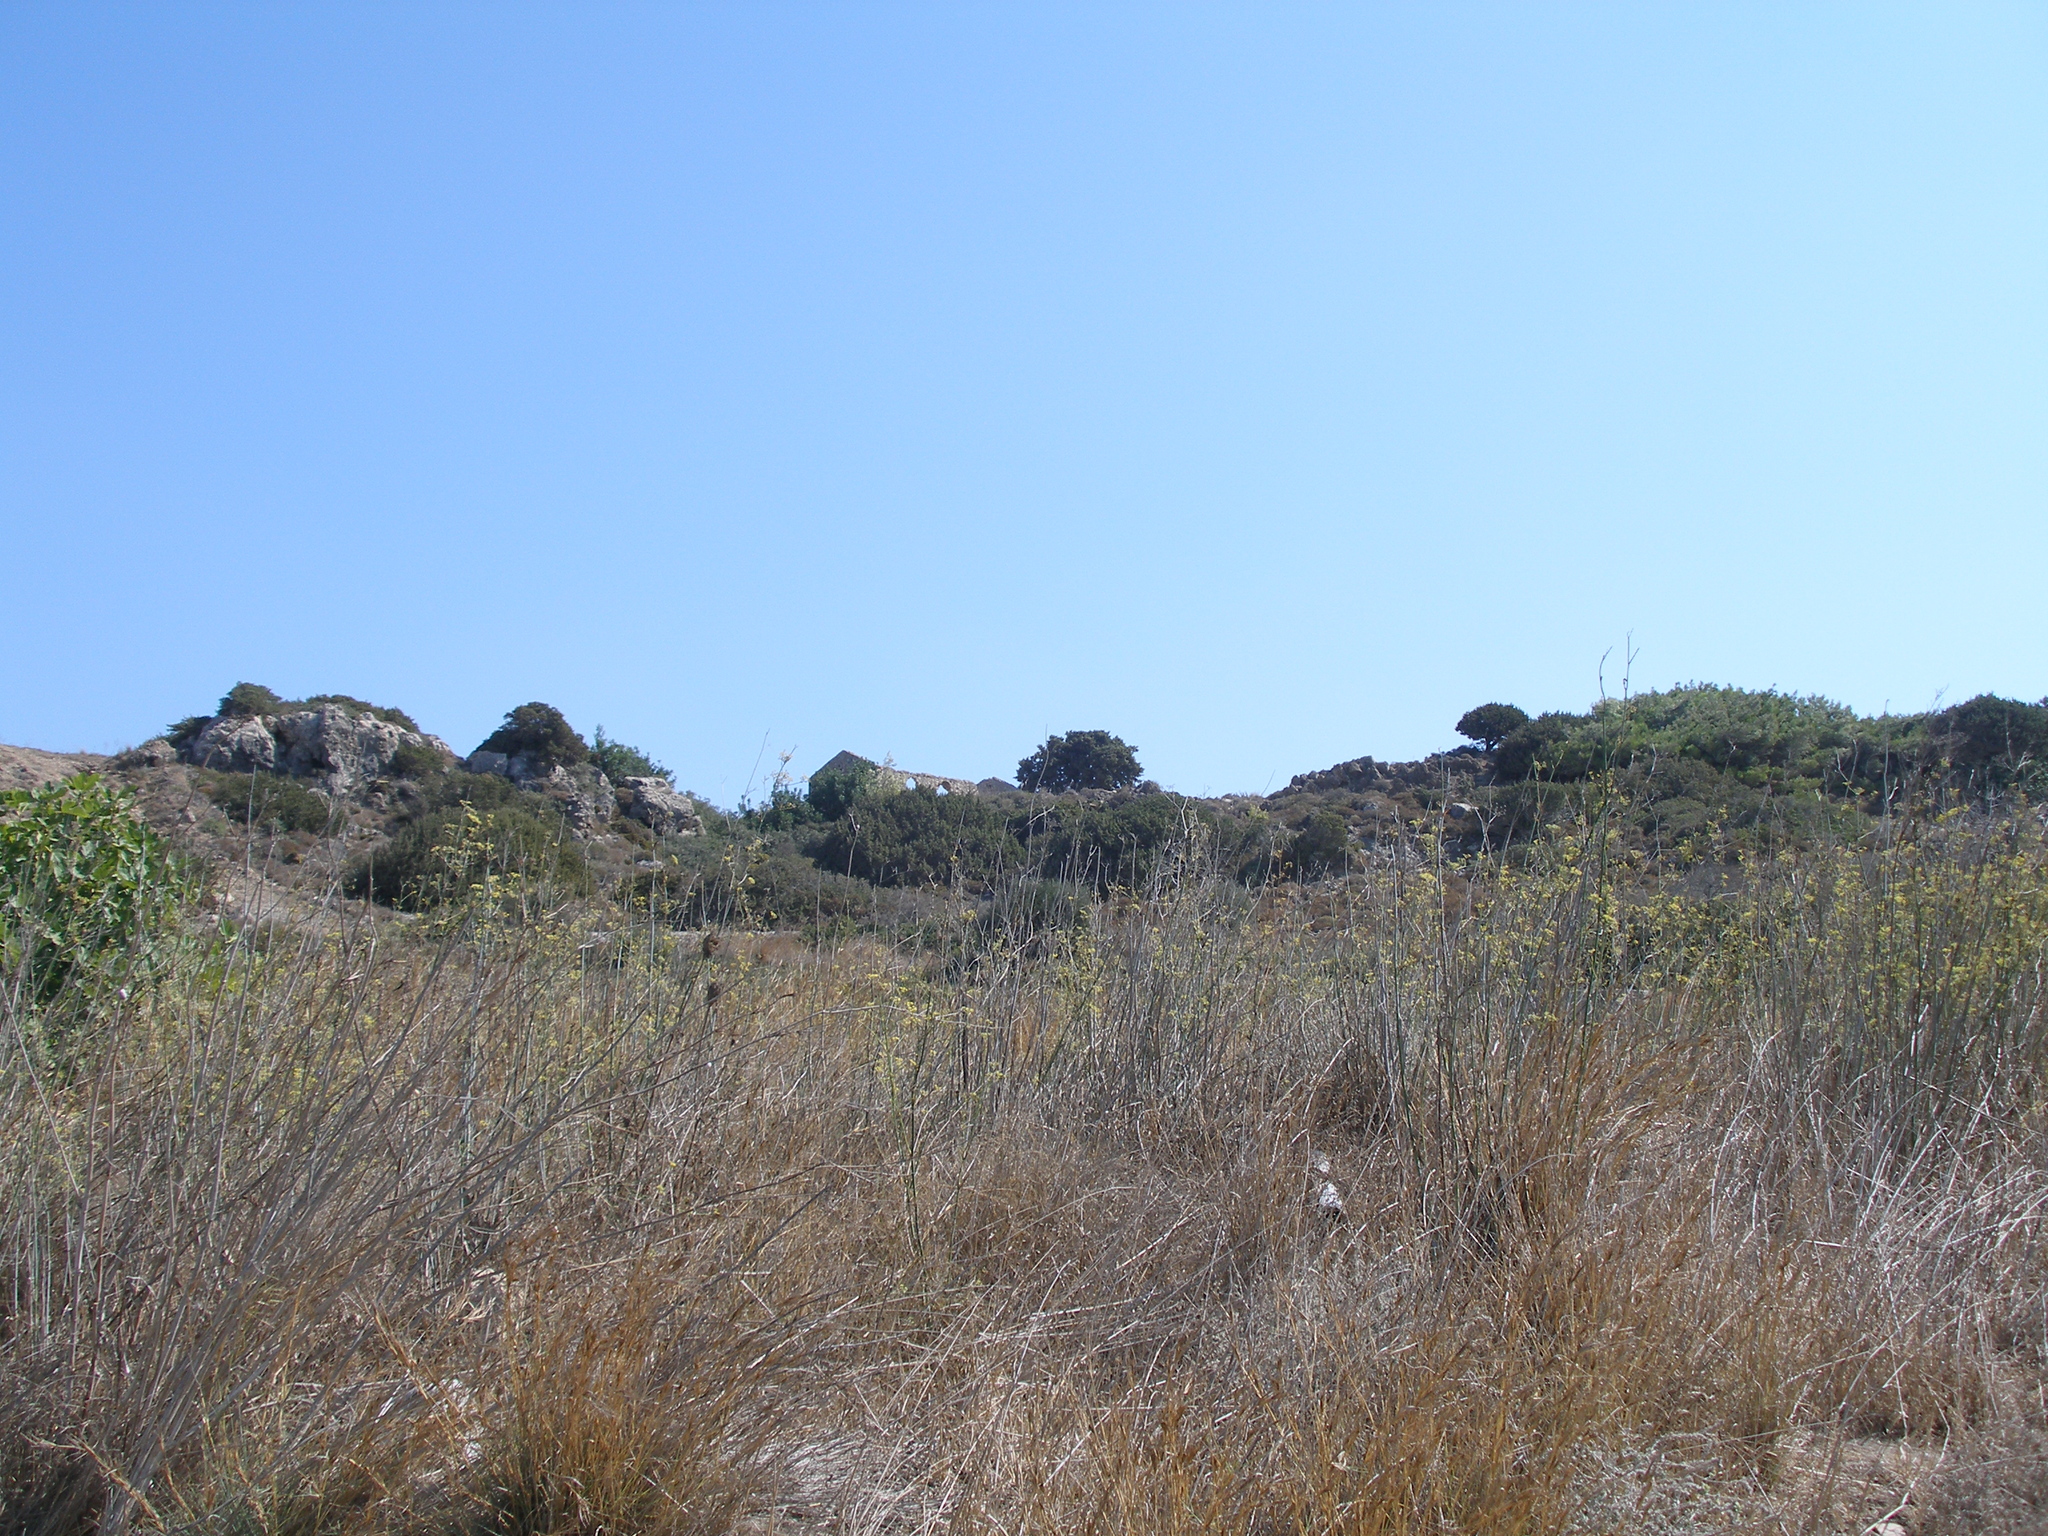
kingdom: Plantae
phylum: Tracheophyta
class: Magnoliopsida
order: Apiales
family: Apiaceae
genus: Foeniculum
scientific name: Foeniculum vulgare
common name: Fennel
